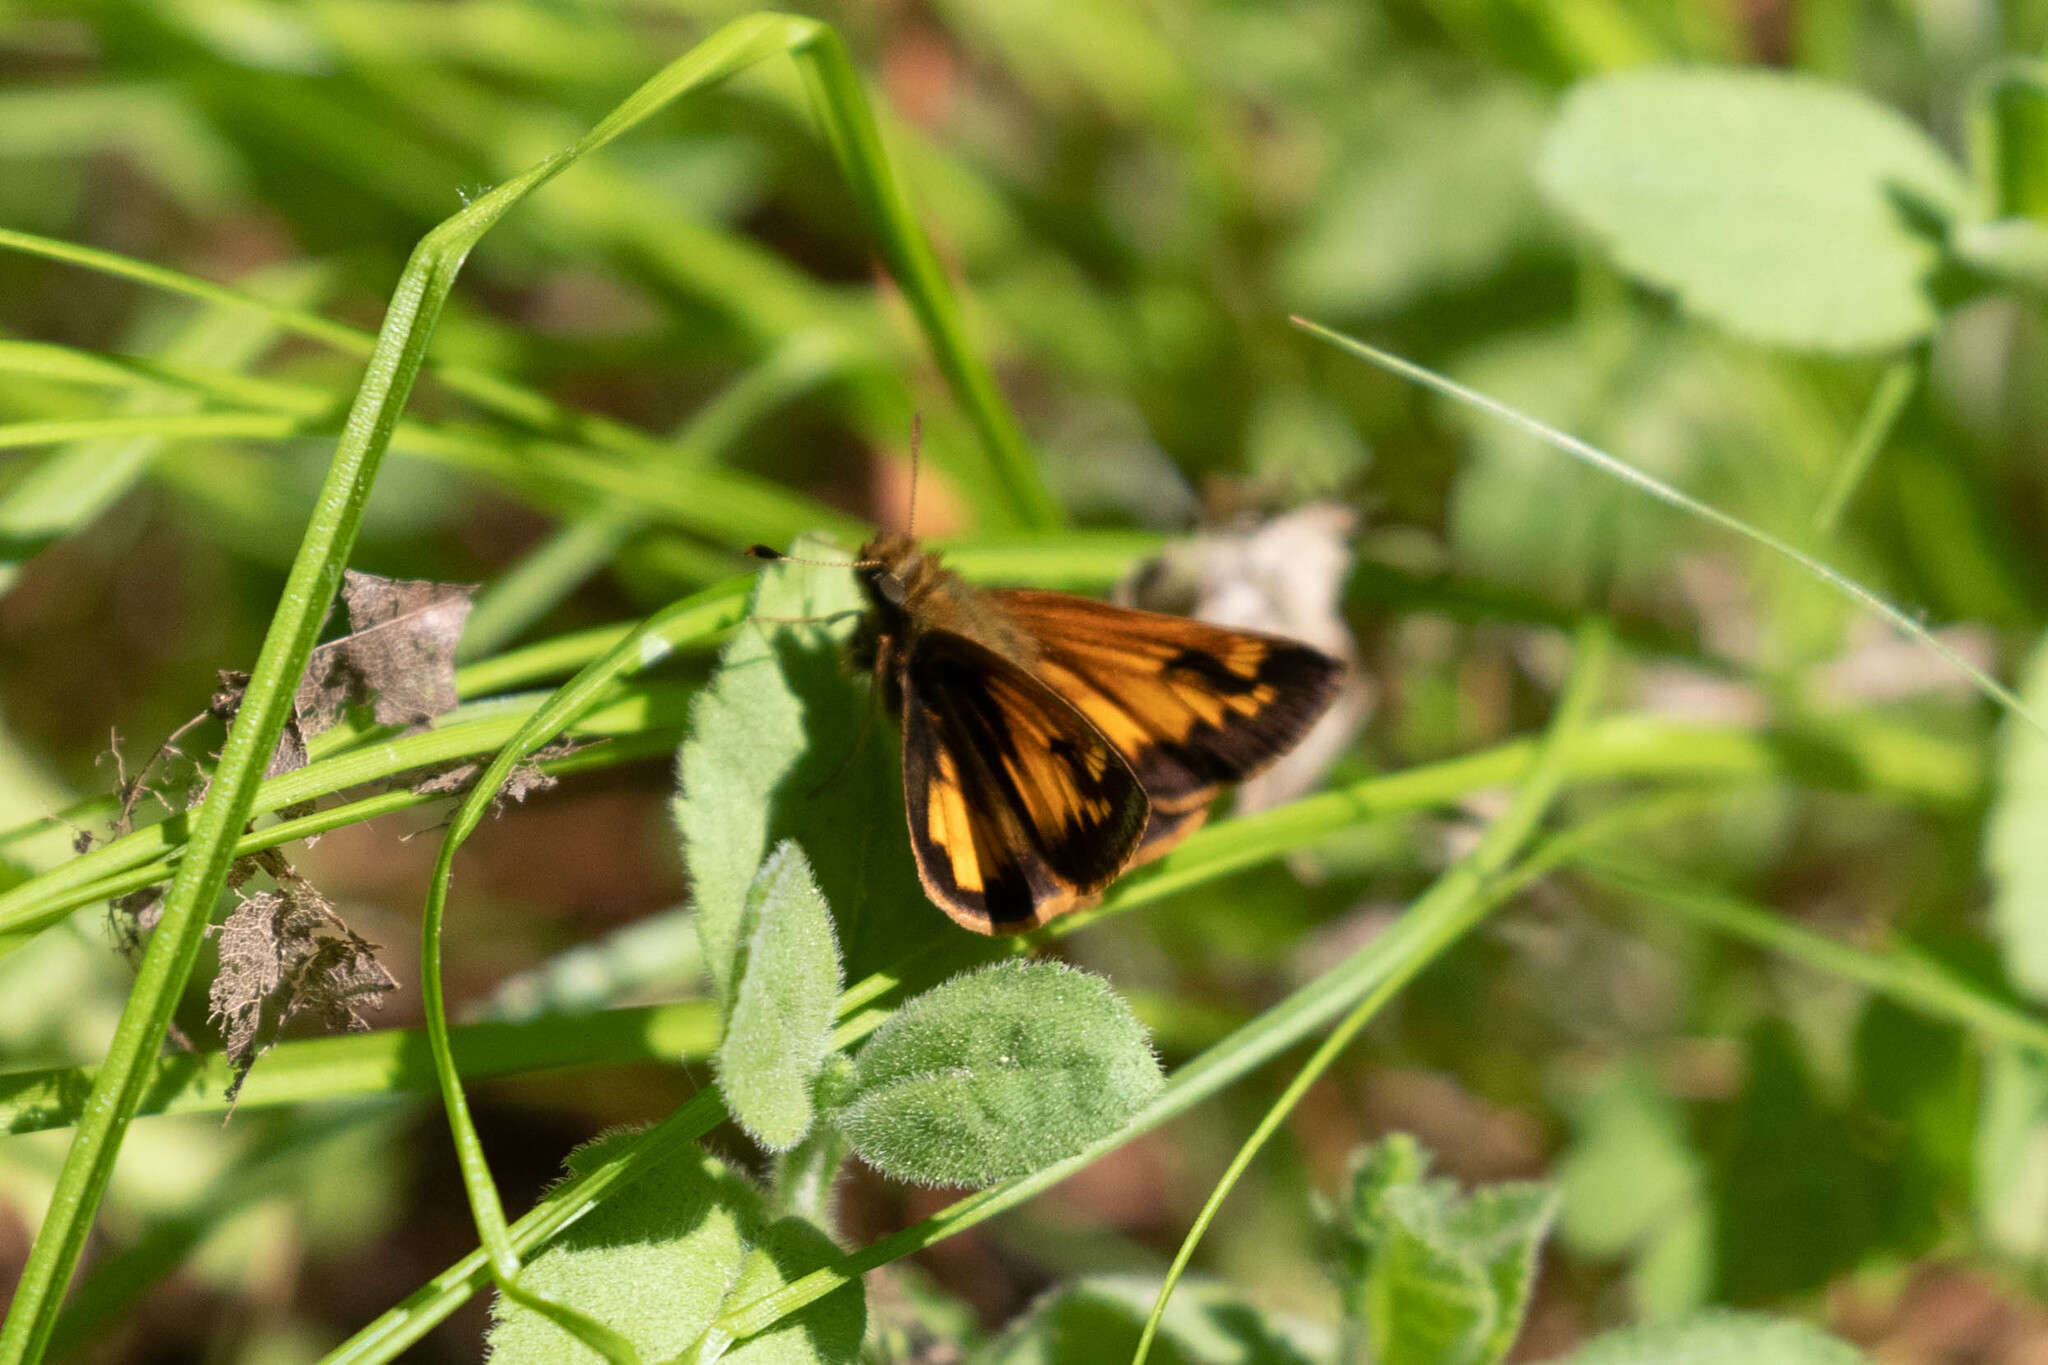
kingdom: Animalia
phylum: Arthropoda
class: Insecta
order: Lepidoptera
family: Hesperiidae
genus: Lon
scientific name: Lon hobomok
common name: Hobomok skipper
